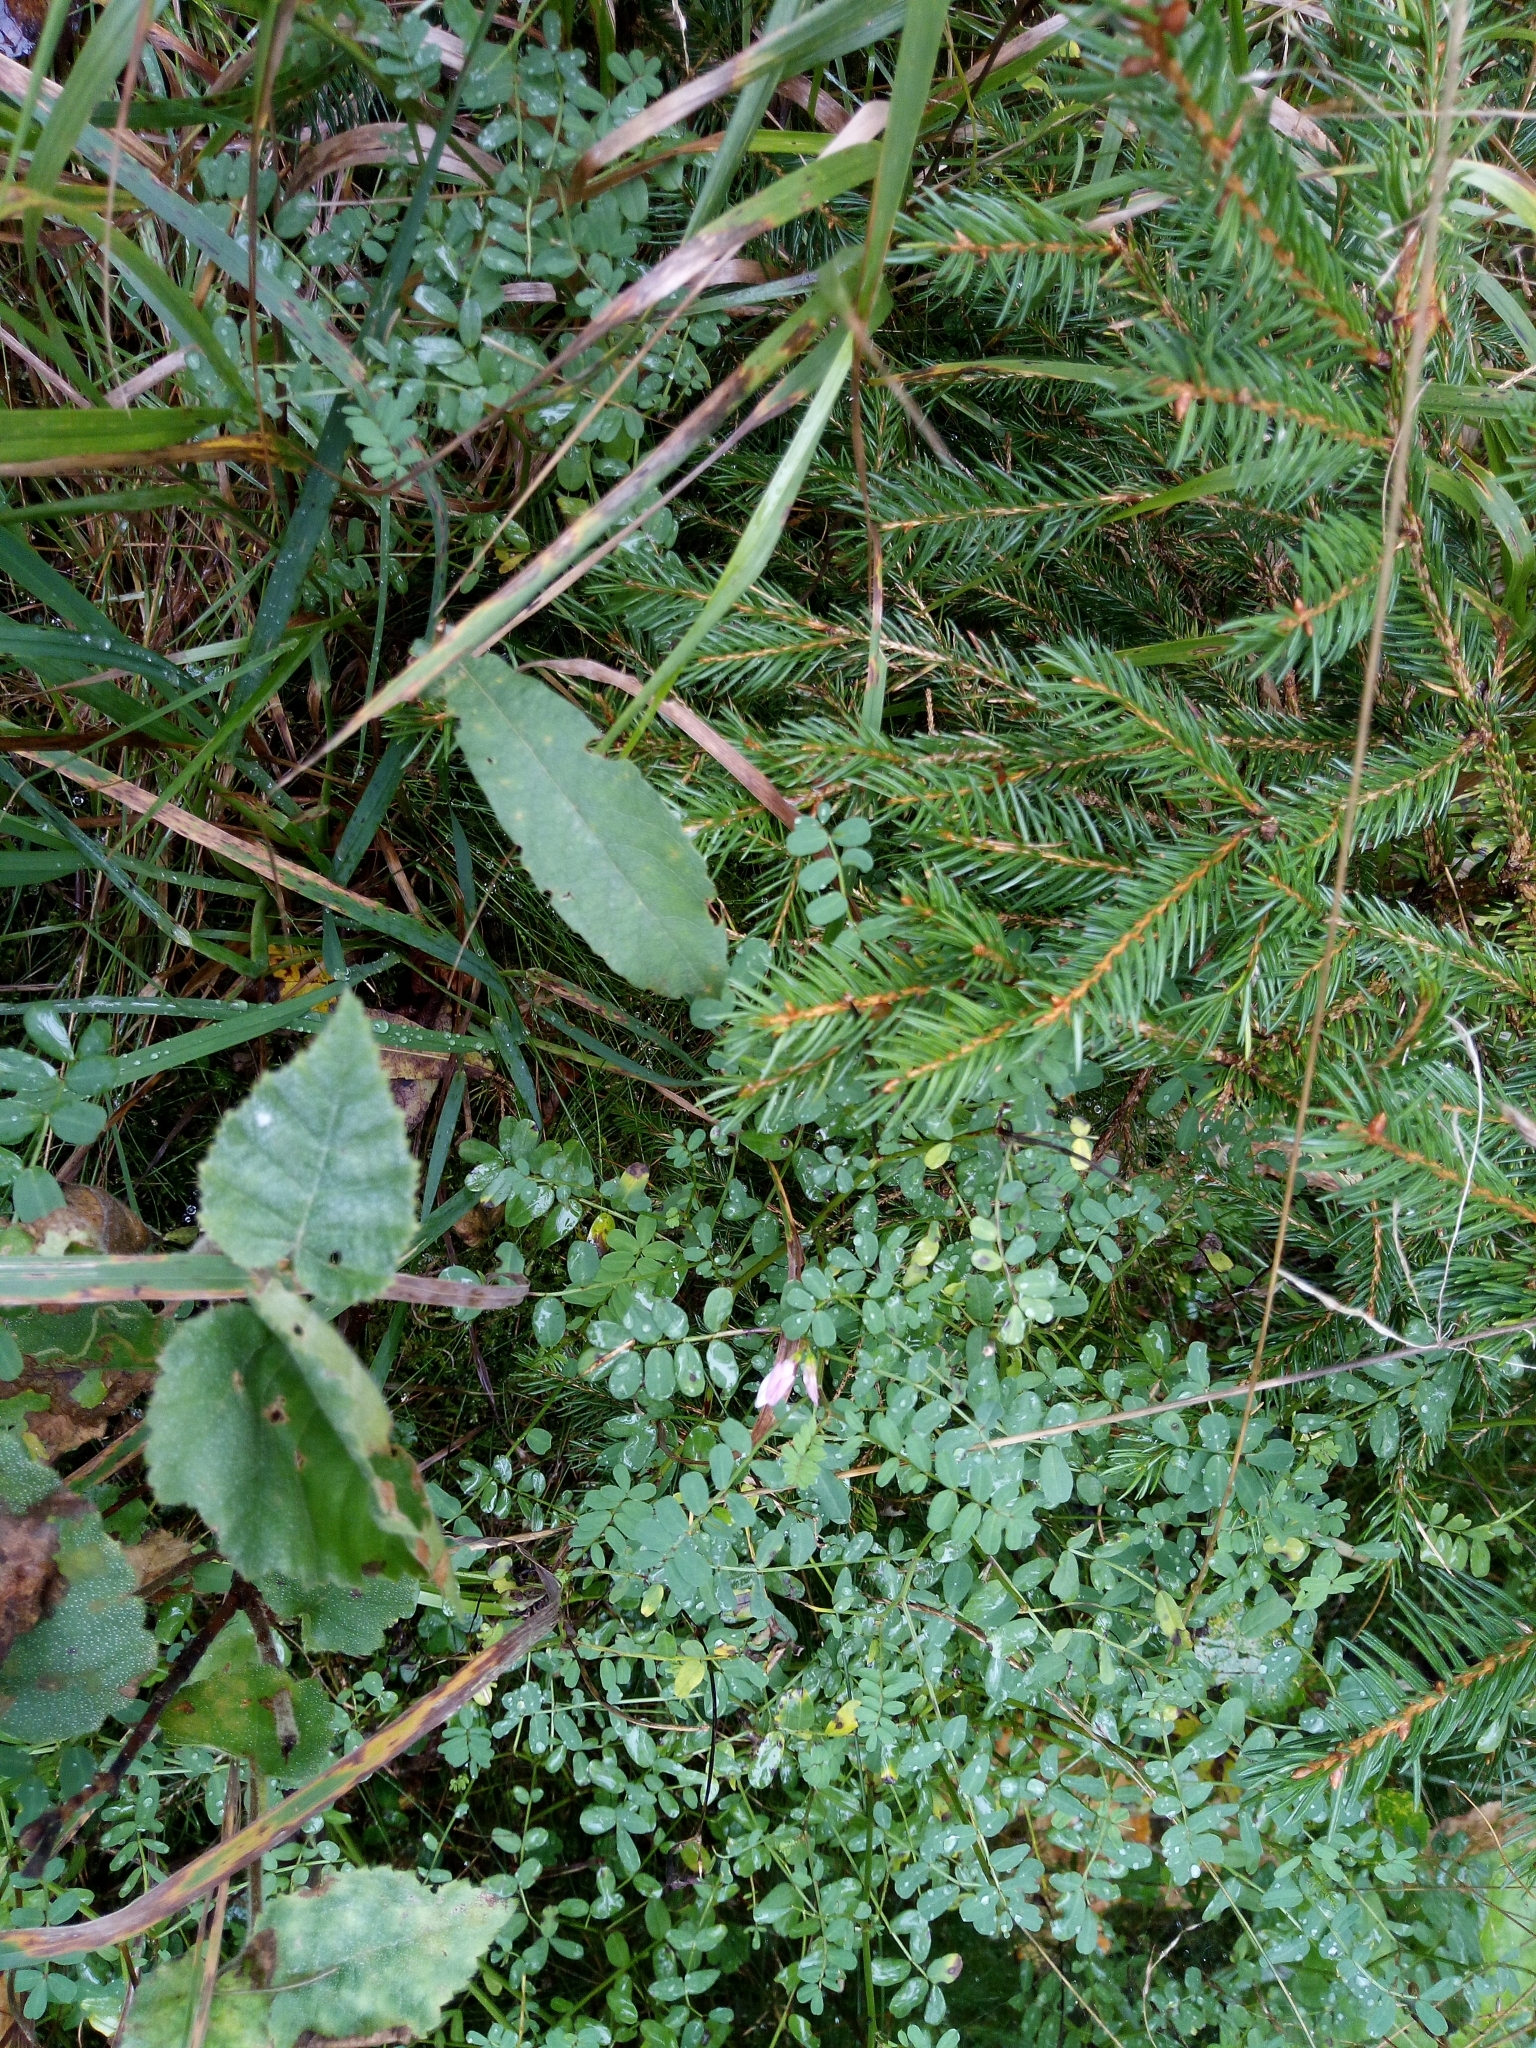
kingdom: Plantae
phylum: Tracheophyta
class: Magnoliopsida
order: Fabales
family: Fabaceae
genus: Coronilla
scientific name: Coronilla varia
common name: Crownvetch
